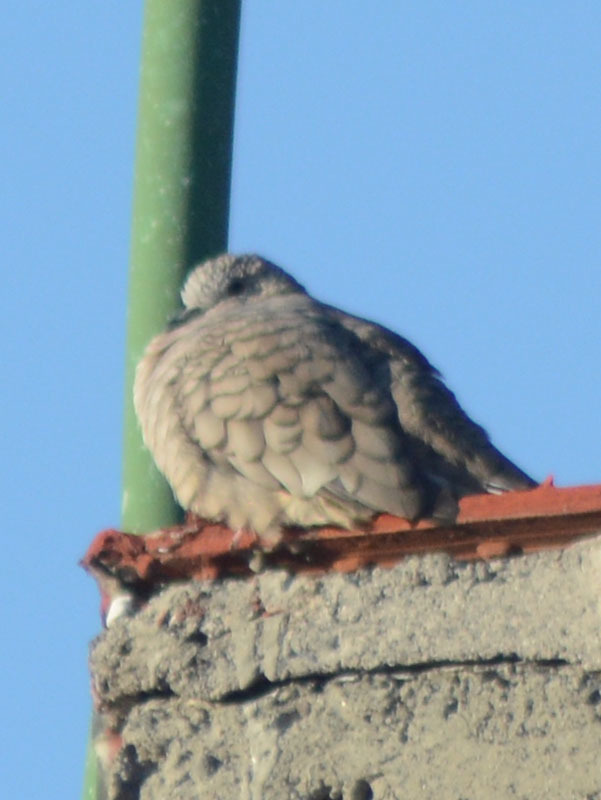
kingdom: Animalia
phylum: Chordata
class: Aves
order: Columbiformes
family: Columbidae
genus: Columbina
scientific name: Columbina inca
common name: Inca dove
